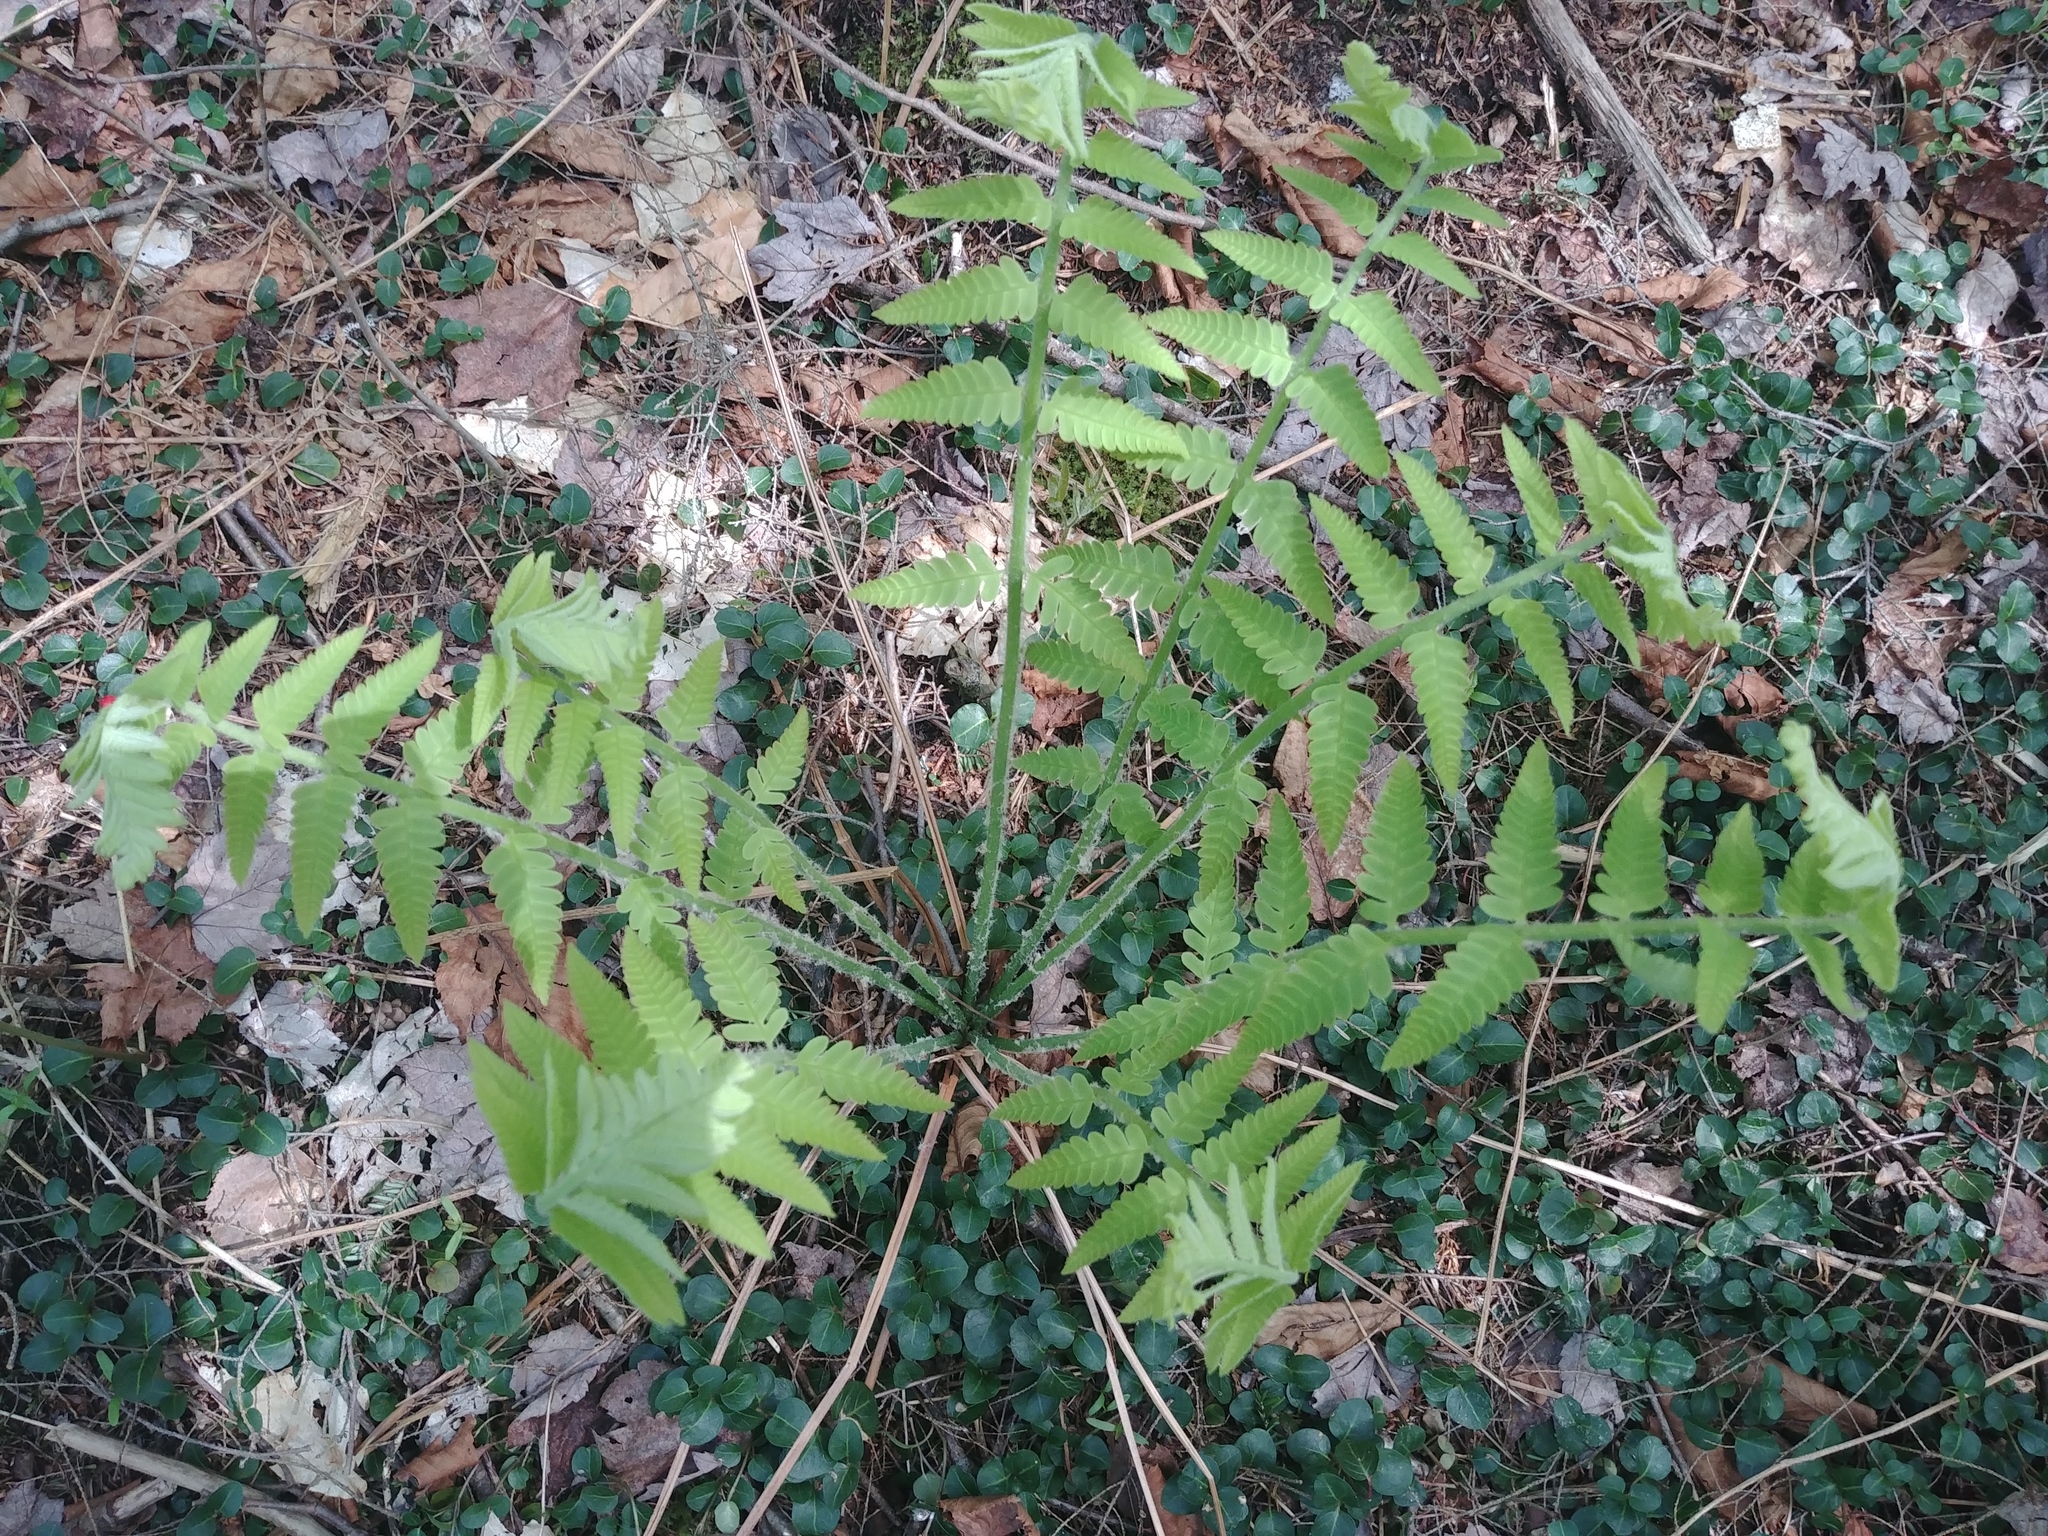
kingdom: Plantae
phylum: Tracheophyta
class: Polypodiopsida
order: Osmundales
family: Osmundaceae
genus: Claytosmunda
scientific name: Claytosmunda claytoniana
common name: Clayton's fern
